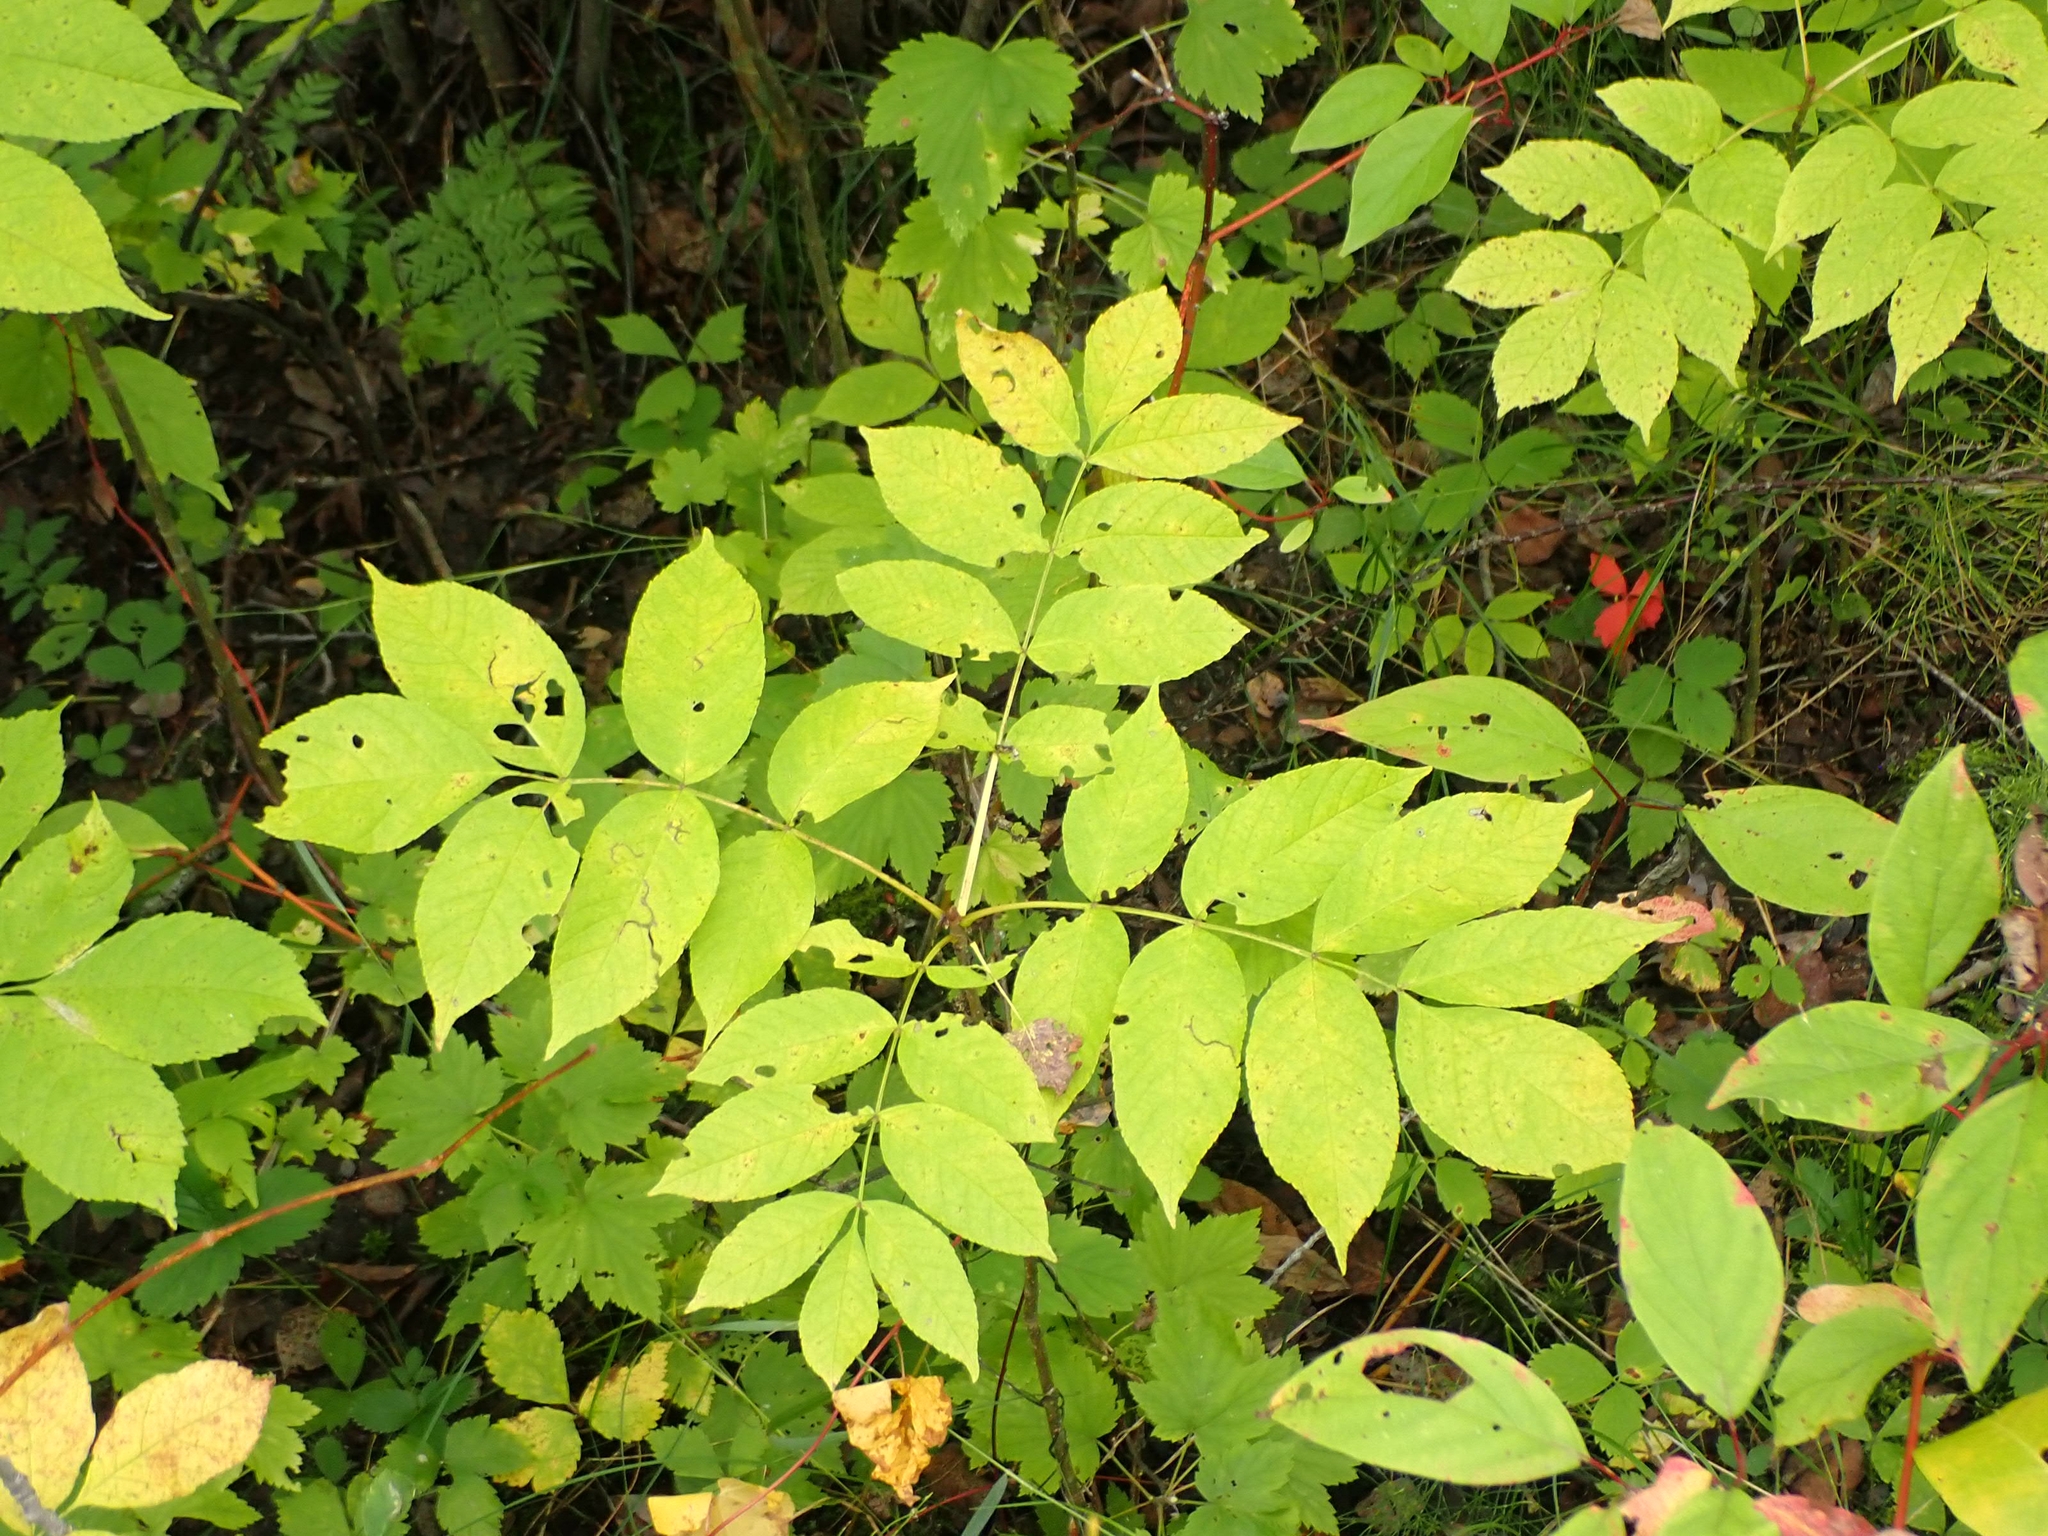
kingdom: Plantae
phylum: Tracheophyta
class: Magnoliopsida
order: Lamiales
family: Oleaceae
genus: Fraxinus
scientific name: Fraxinus nigra
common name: Black ash
